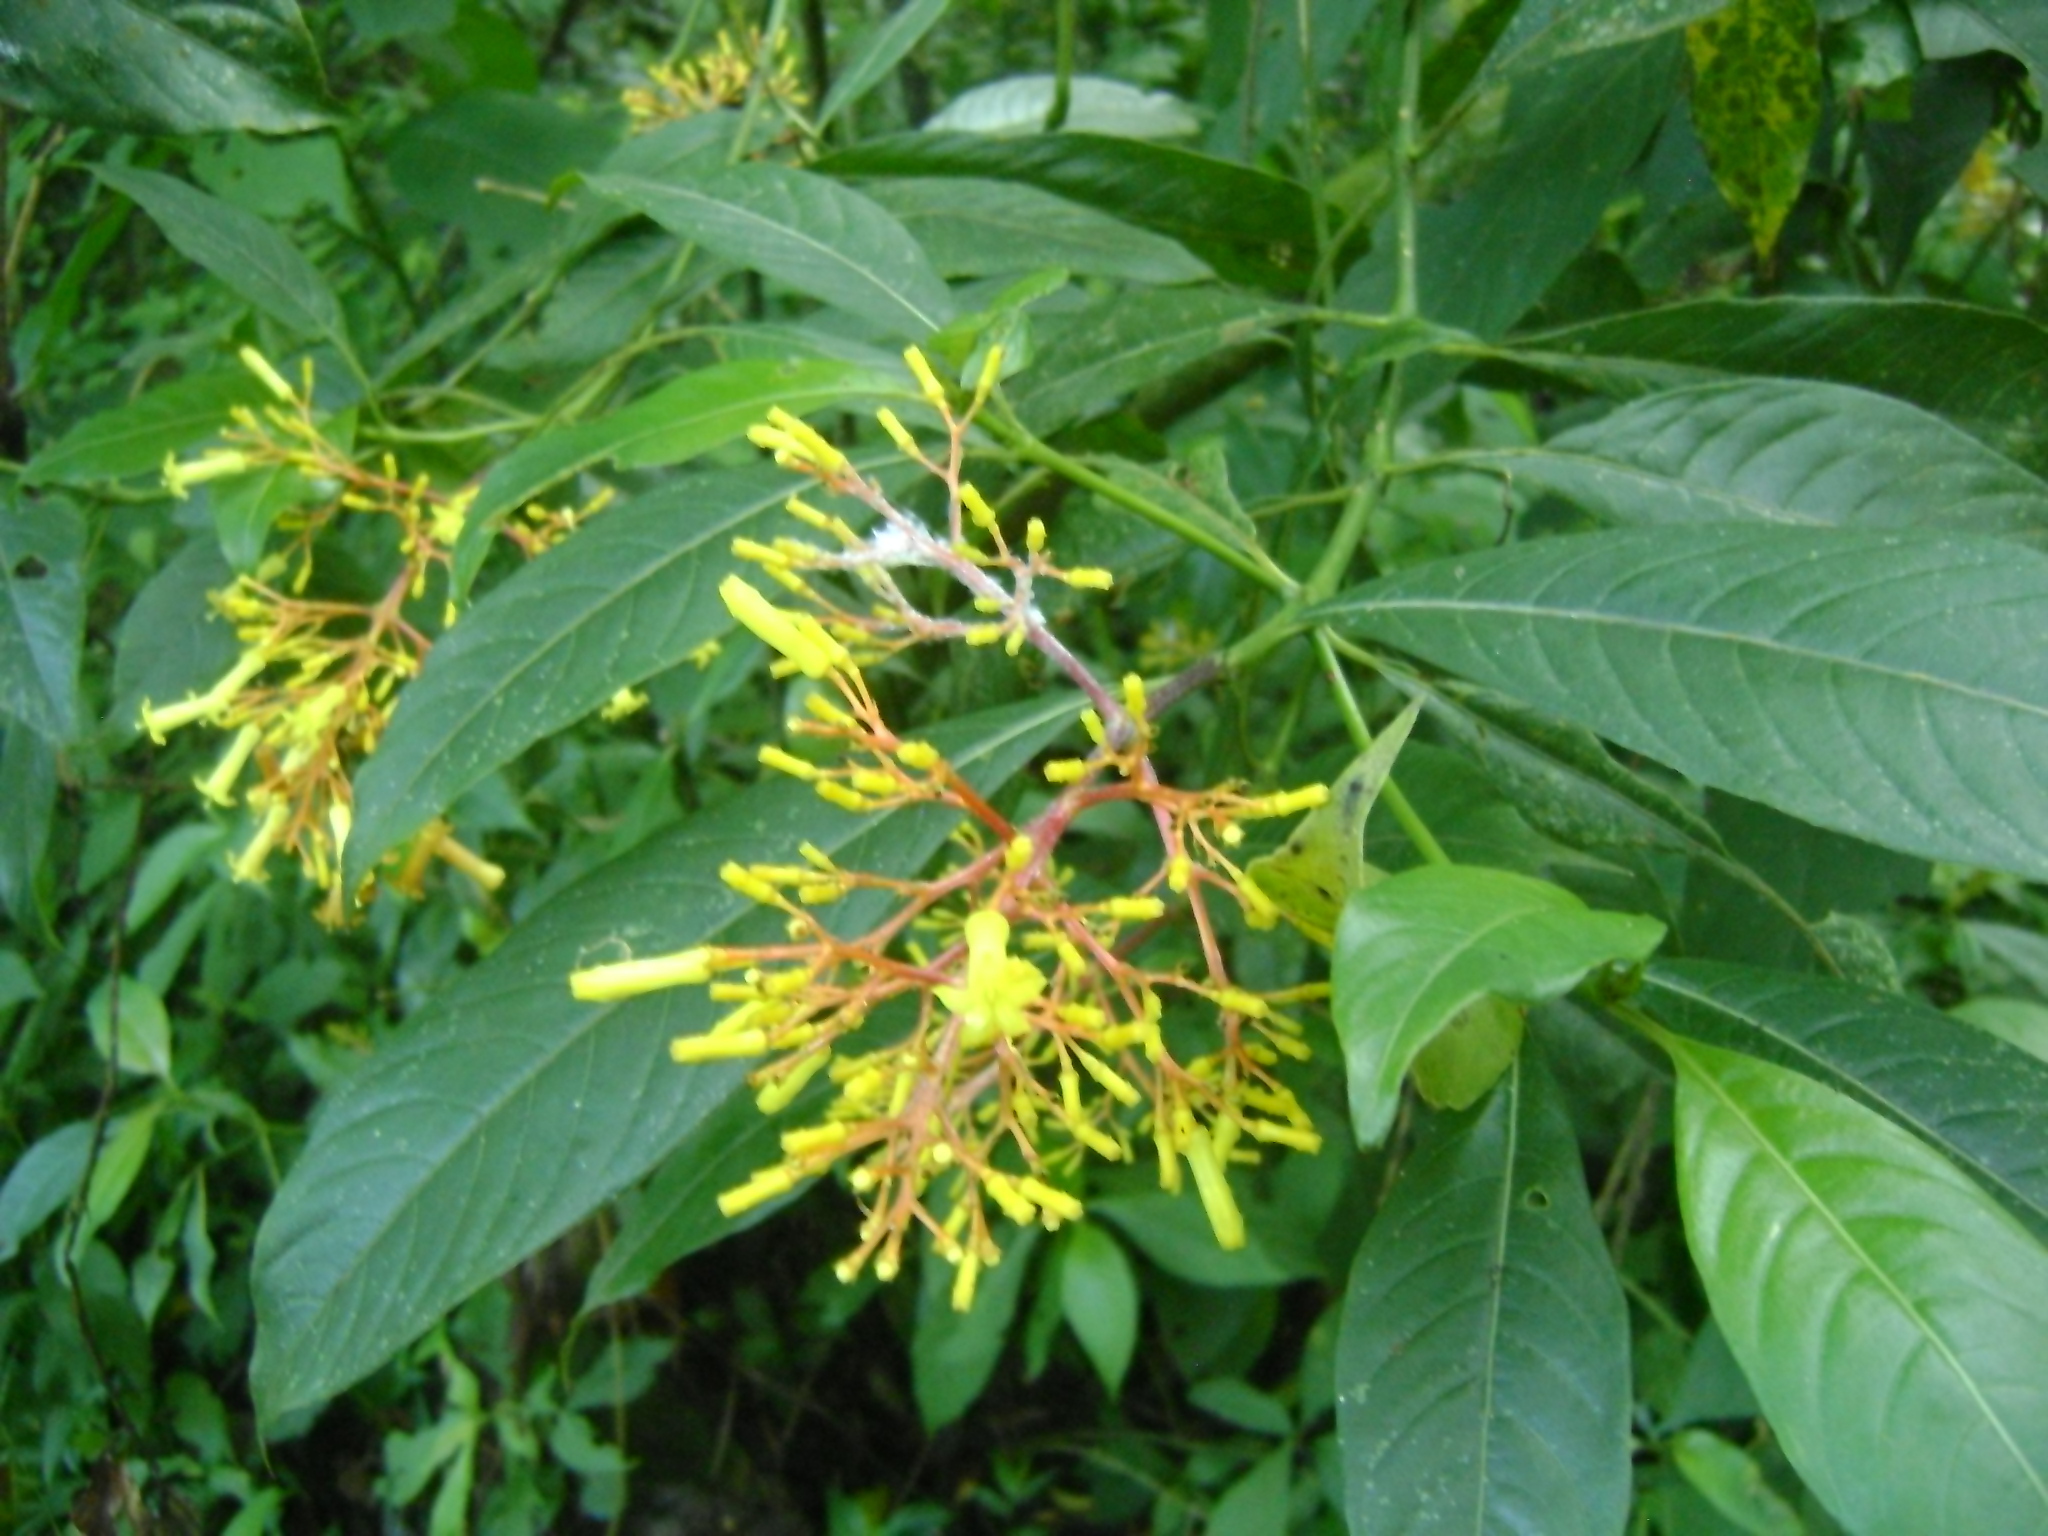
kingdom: Plantae
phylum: Tracheophyta
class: Magnoliopsida
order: Gentianales
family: Rubiaceae
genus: Palicourea
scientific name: Palicourea padifolia
